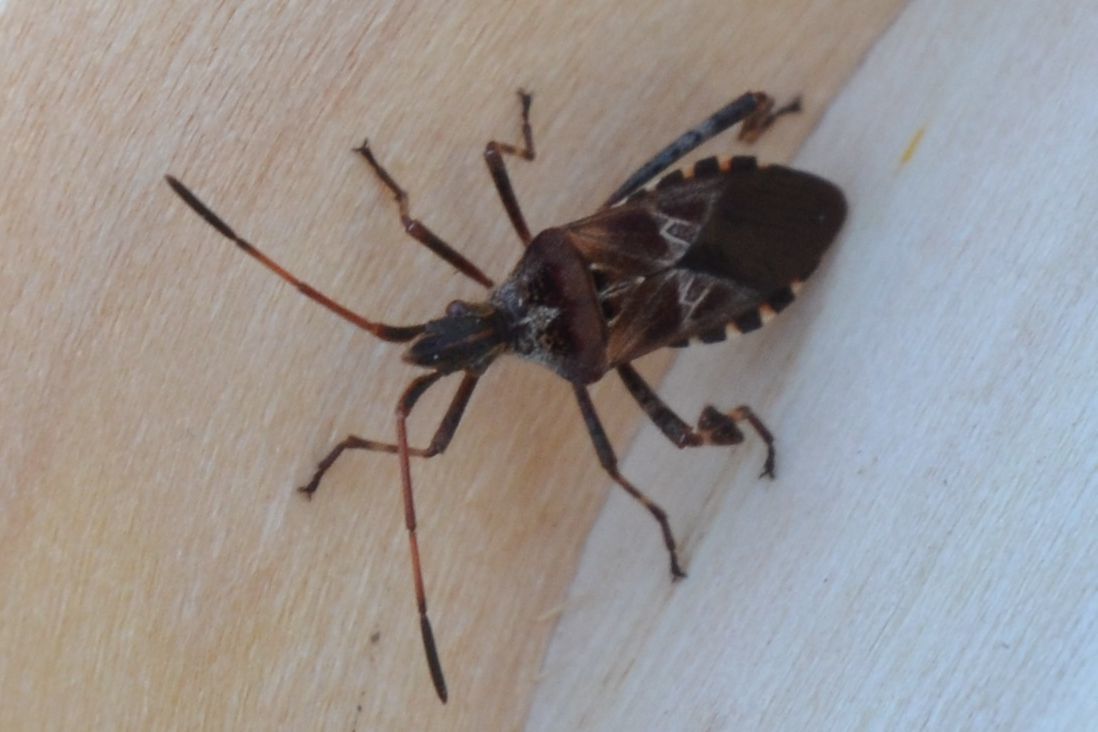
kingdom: Animalia
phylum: Arthropoda
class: Insecta
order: Hemiptera
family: Coreidae
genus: Leptoglossus
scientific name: Leptoglossus occidentalis
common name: Western conifer-seed bug
